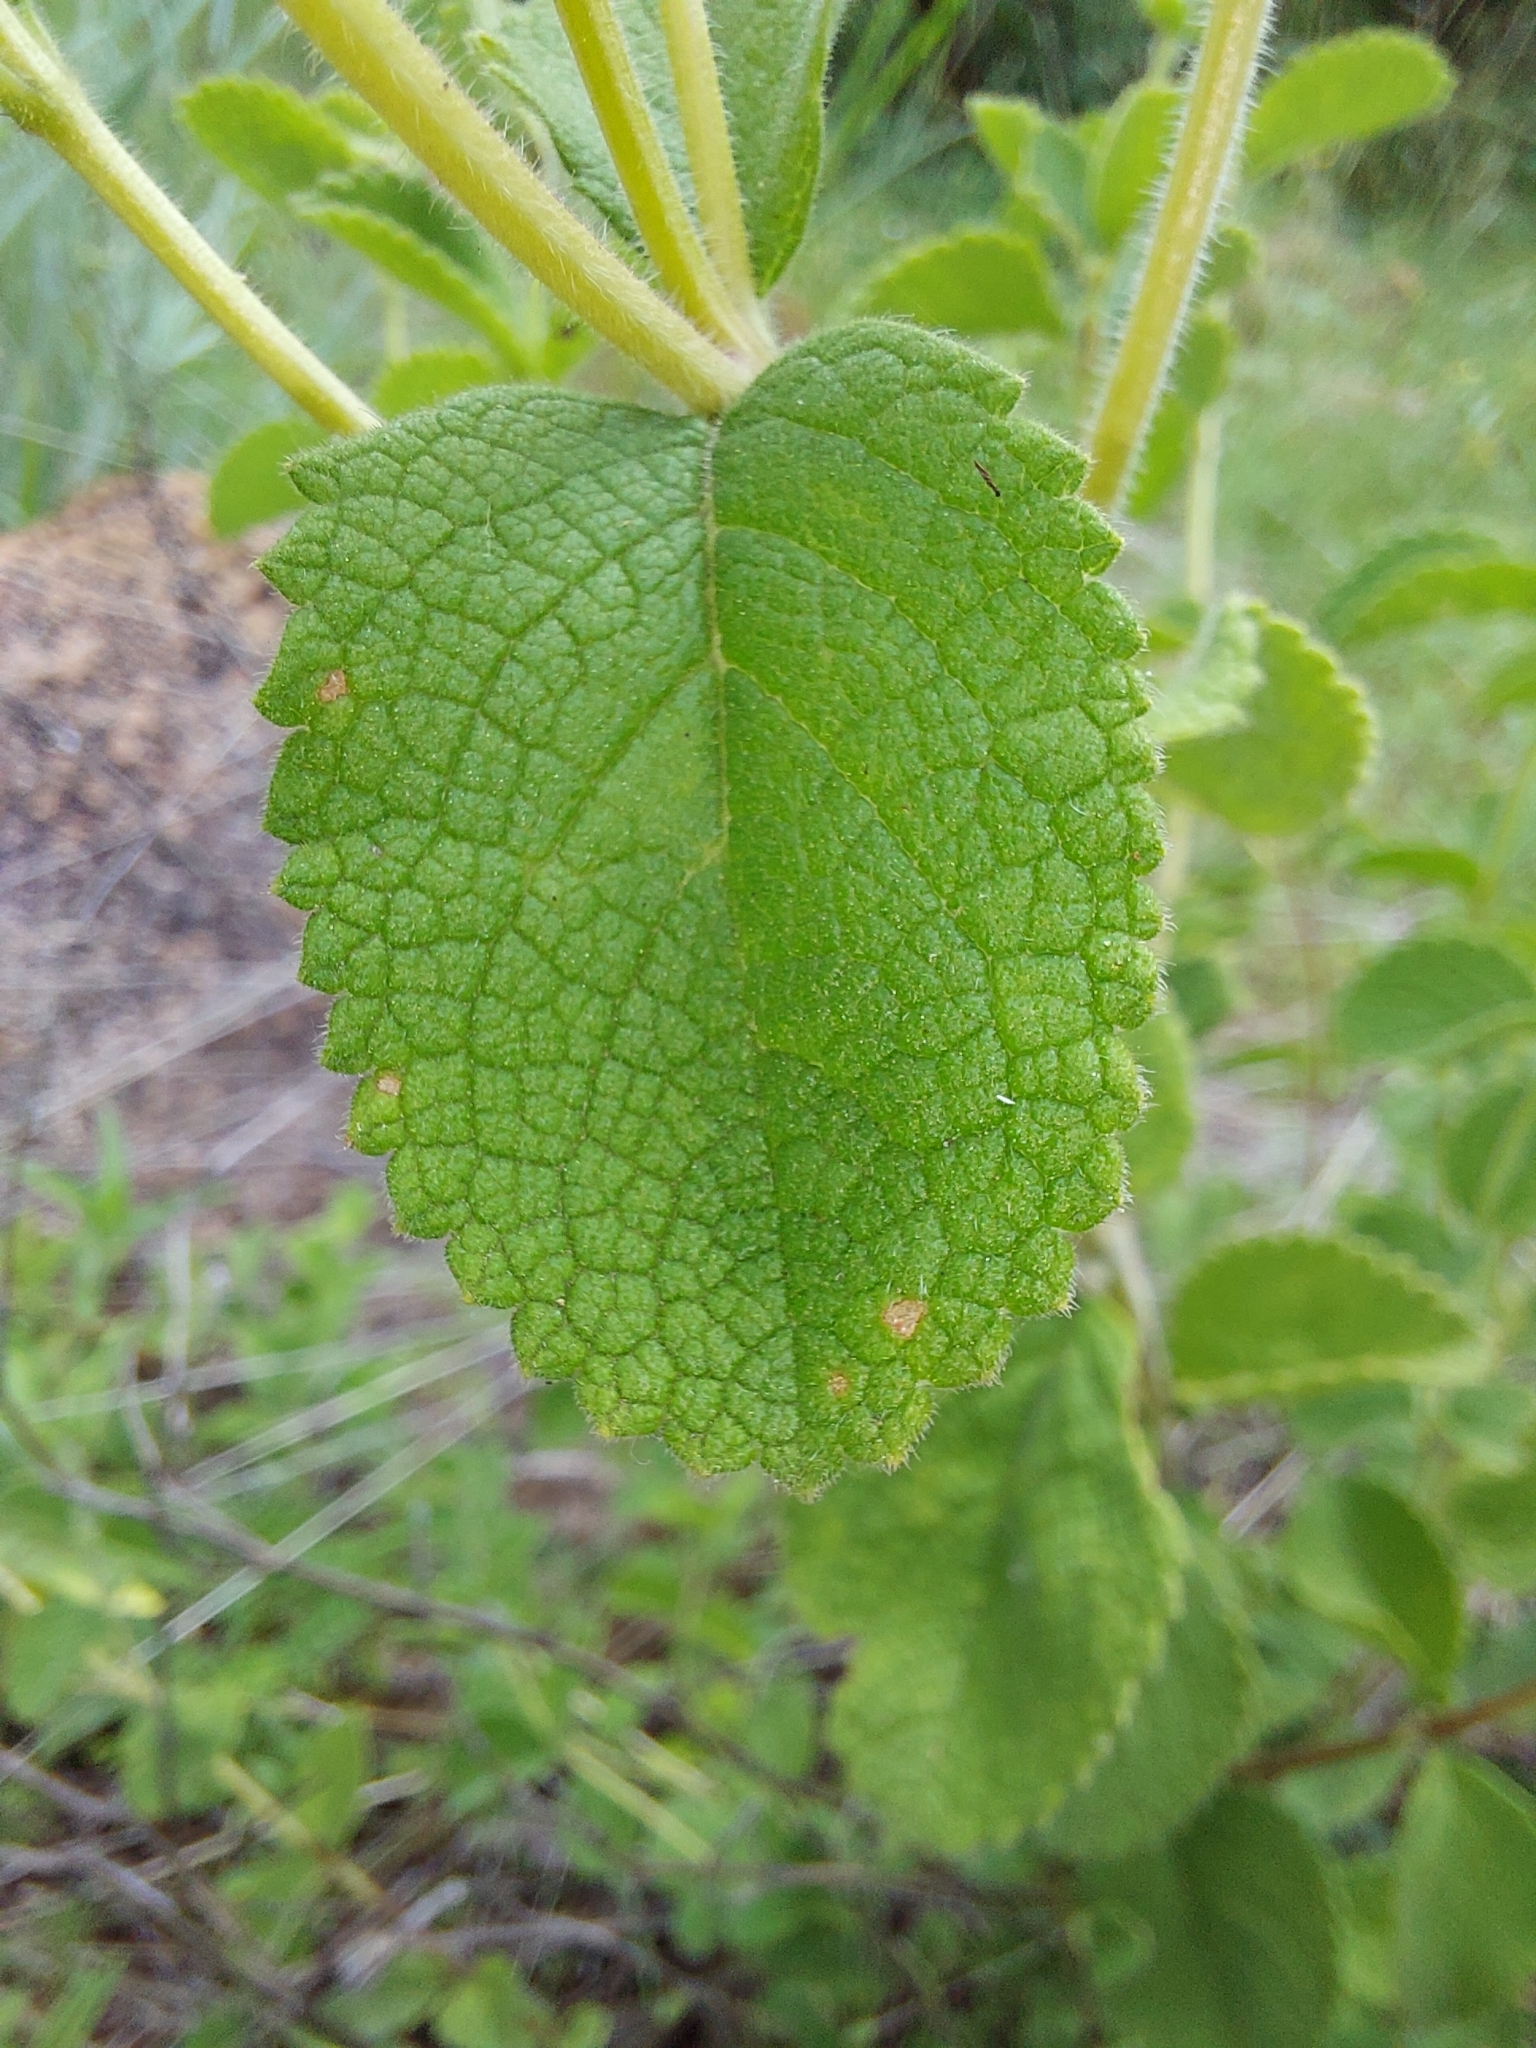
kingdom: Plantae
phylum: Tracheophyta
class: Magnoliopsida
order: Lamiales
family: Lamiaceae
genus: Ocimum
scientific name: Ocimum labiatum
